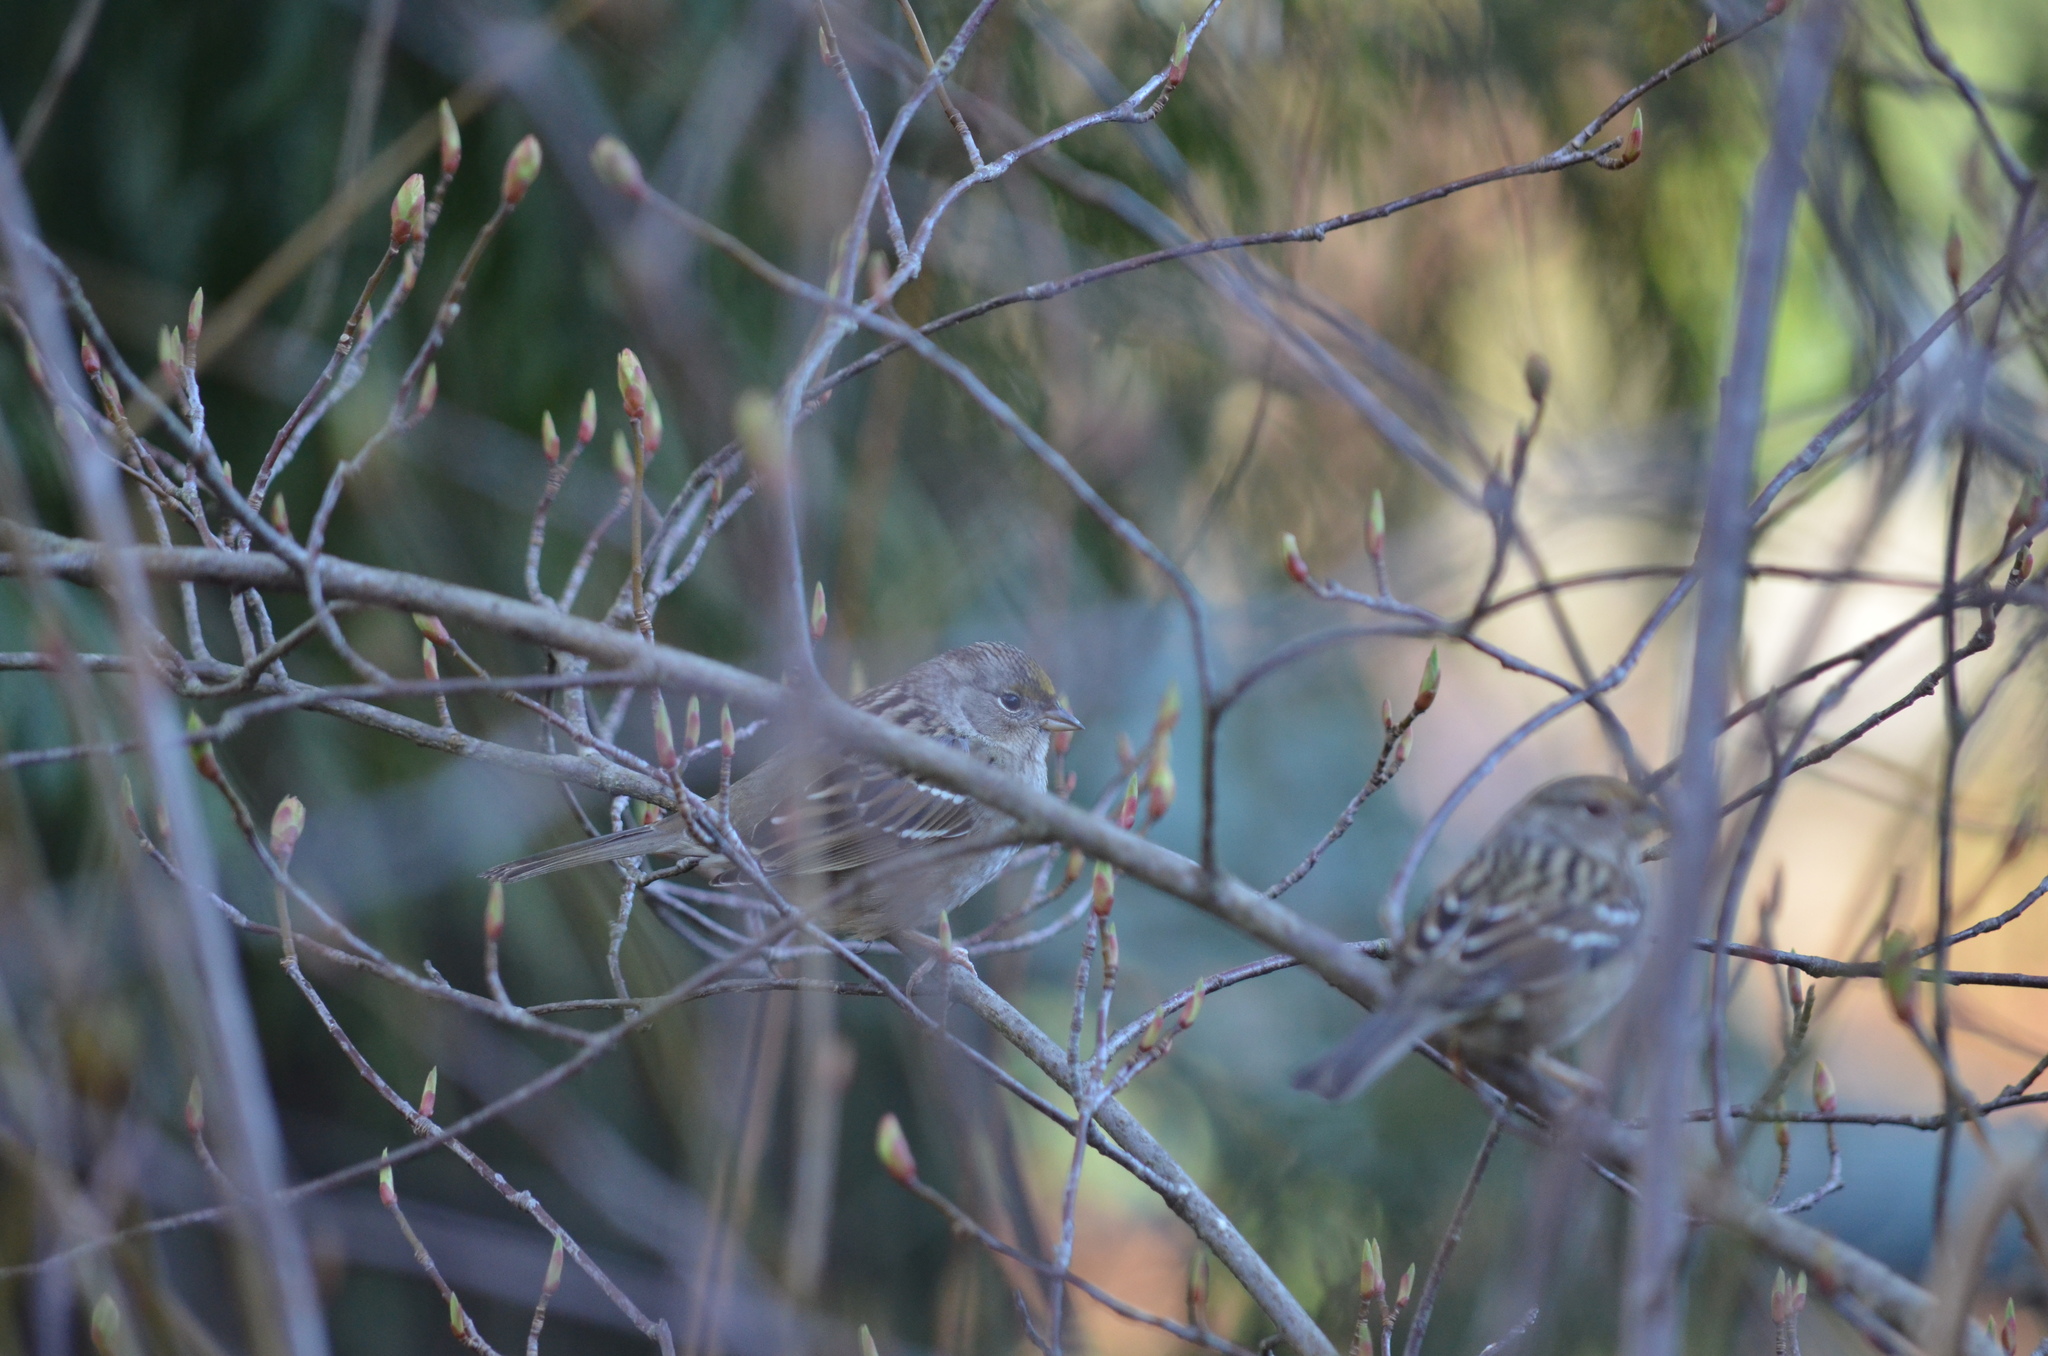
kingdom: Animalia
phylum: Chordata
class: Aves
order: Passeriformes
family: Passerellidae
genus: Zonotrichia
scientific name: Zonotrichia atricapilla
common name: Golden-crowned sparrow
